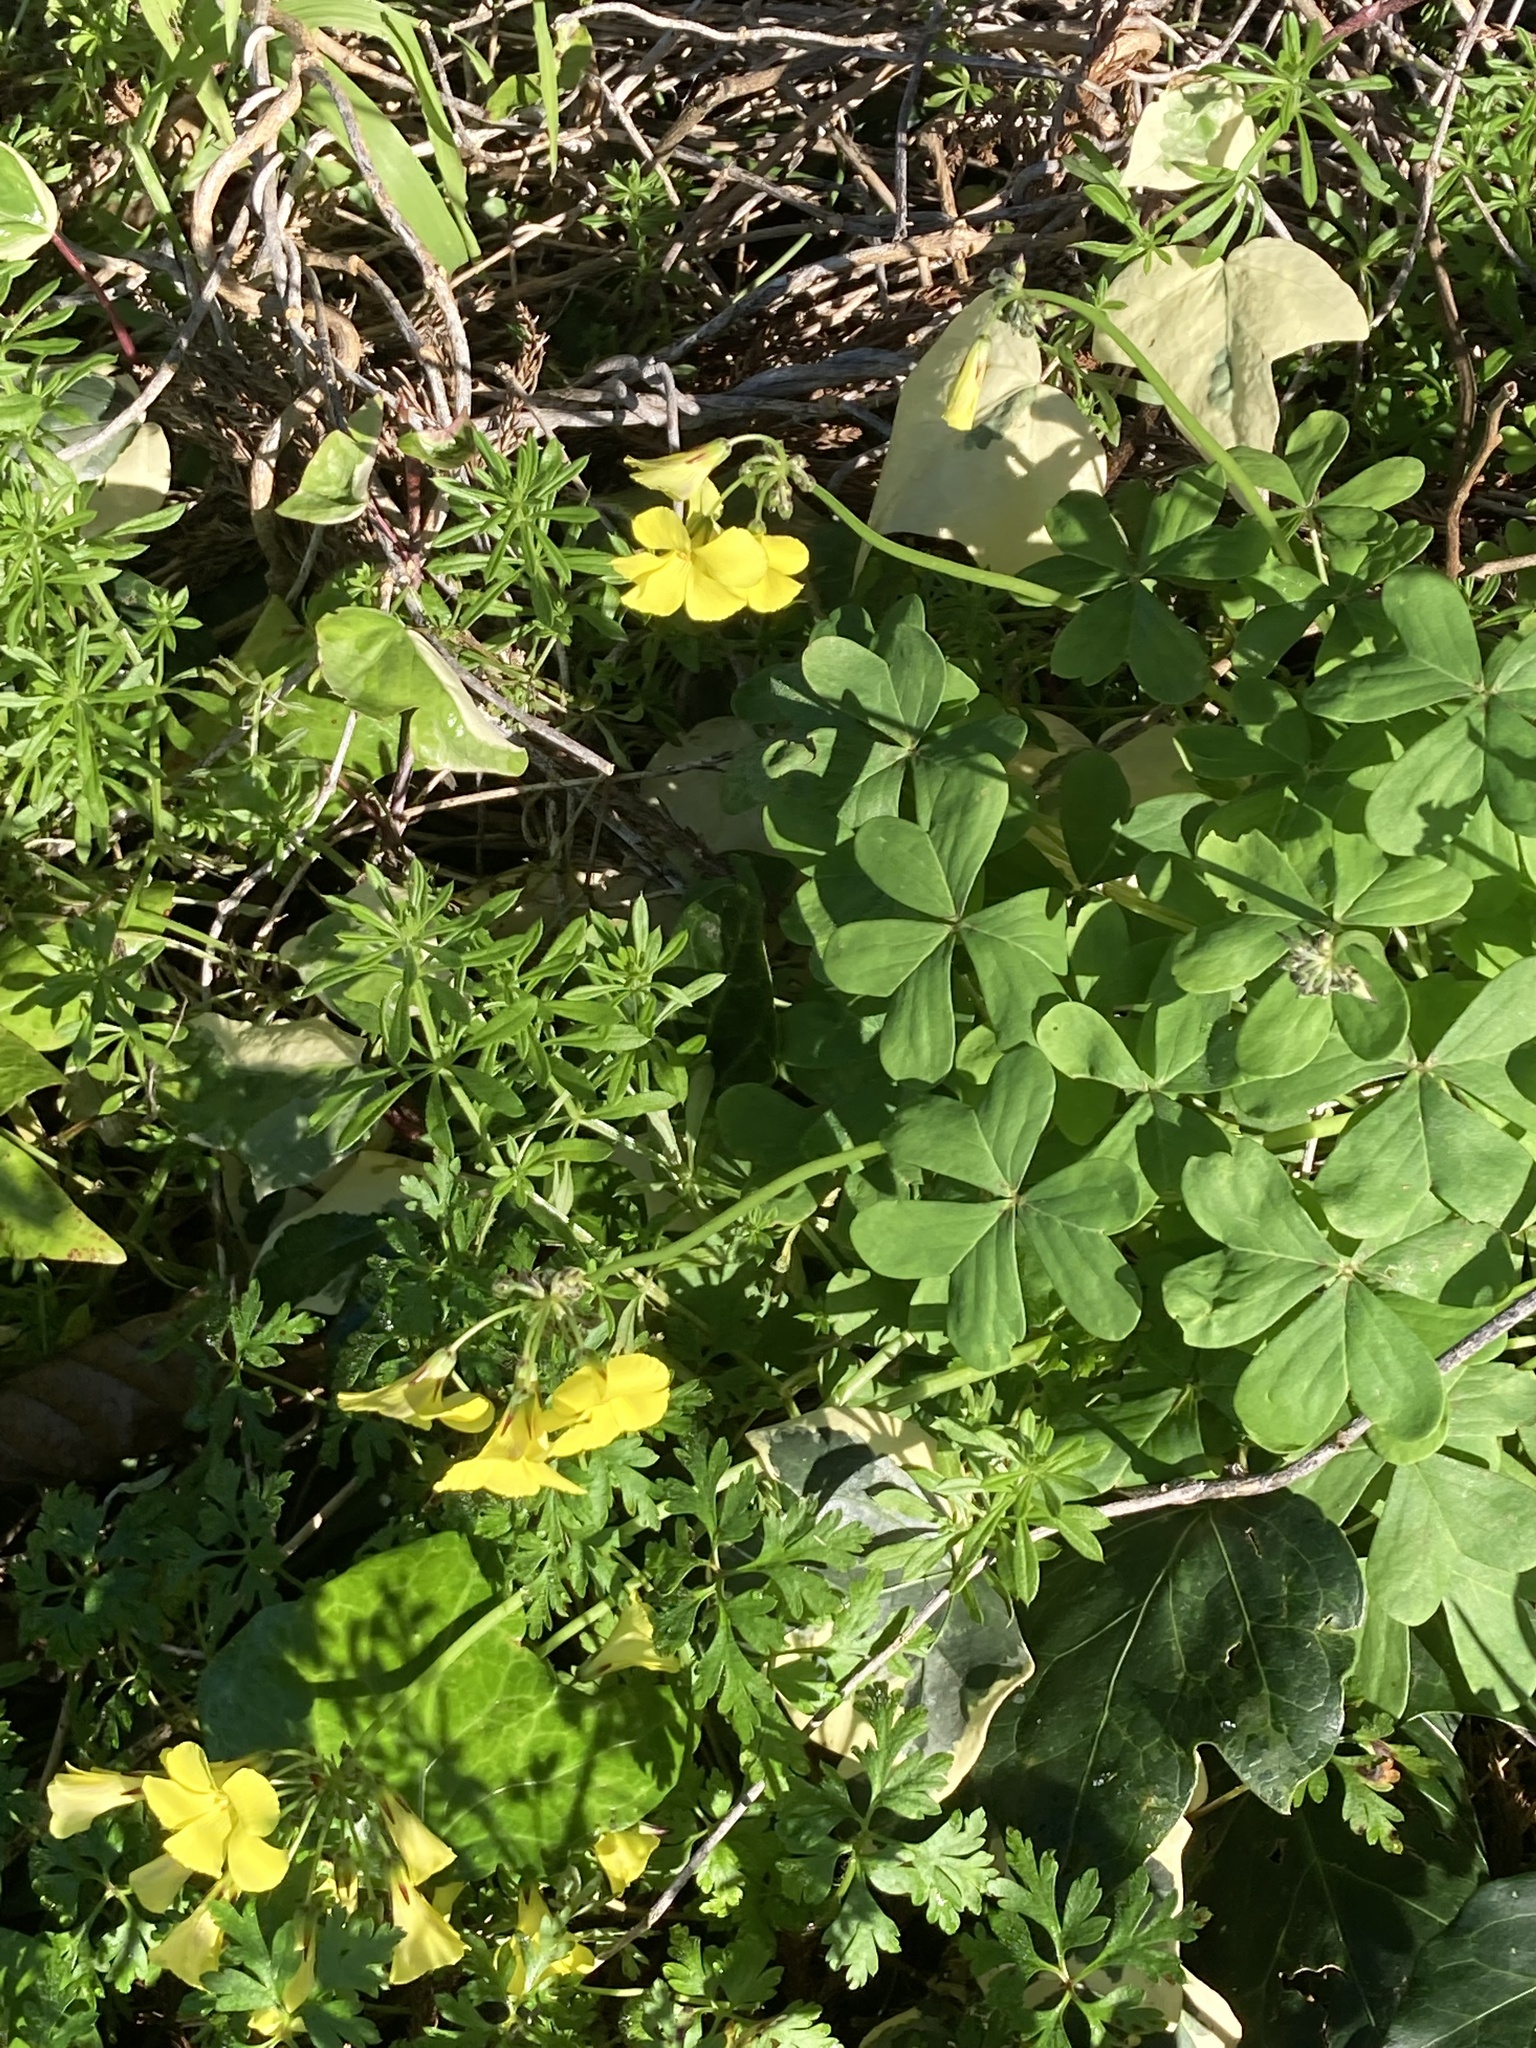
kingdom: Plantae
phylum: Tracheophyta
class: Magnoliopsida
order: Oxalidales
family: Oxalidaceae
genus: Oxalis
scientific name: Oxalis pes-caprae
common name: Bermuda-buttercup
